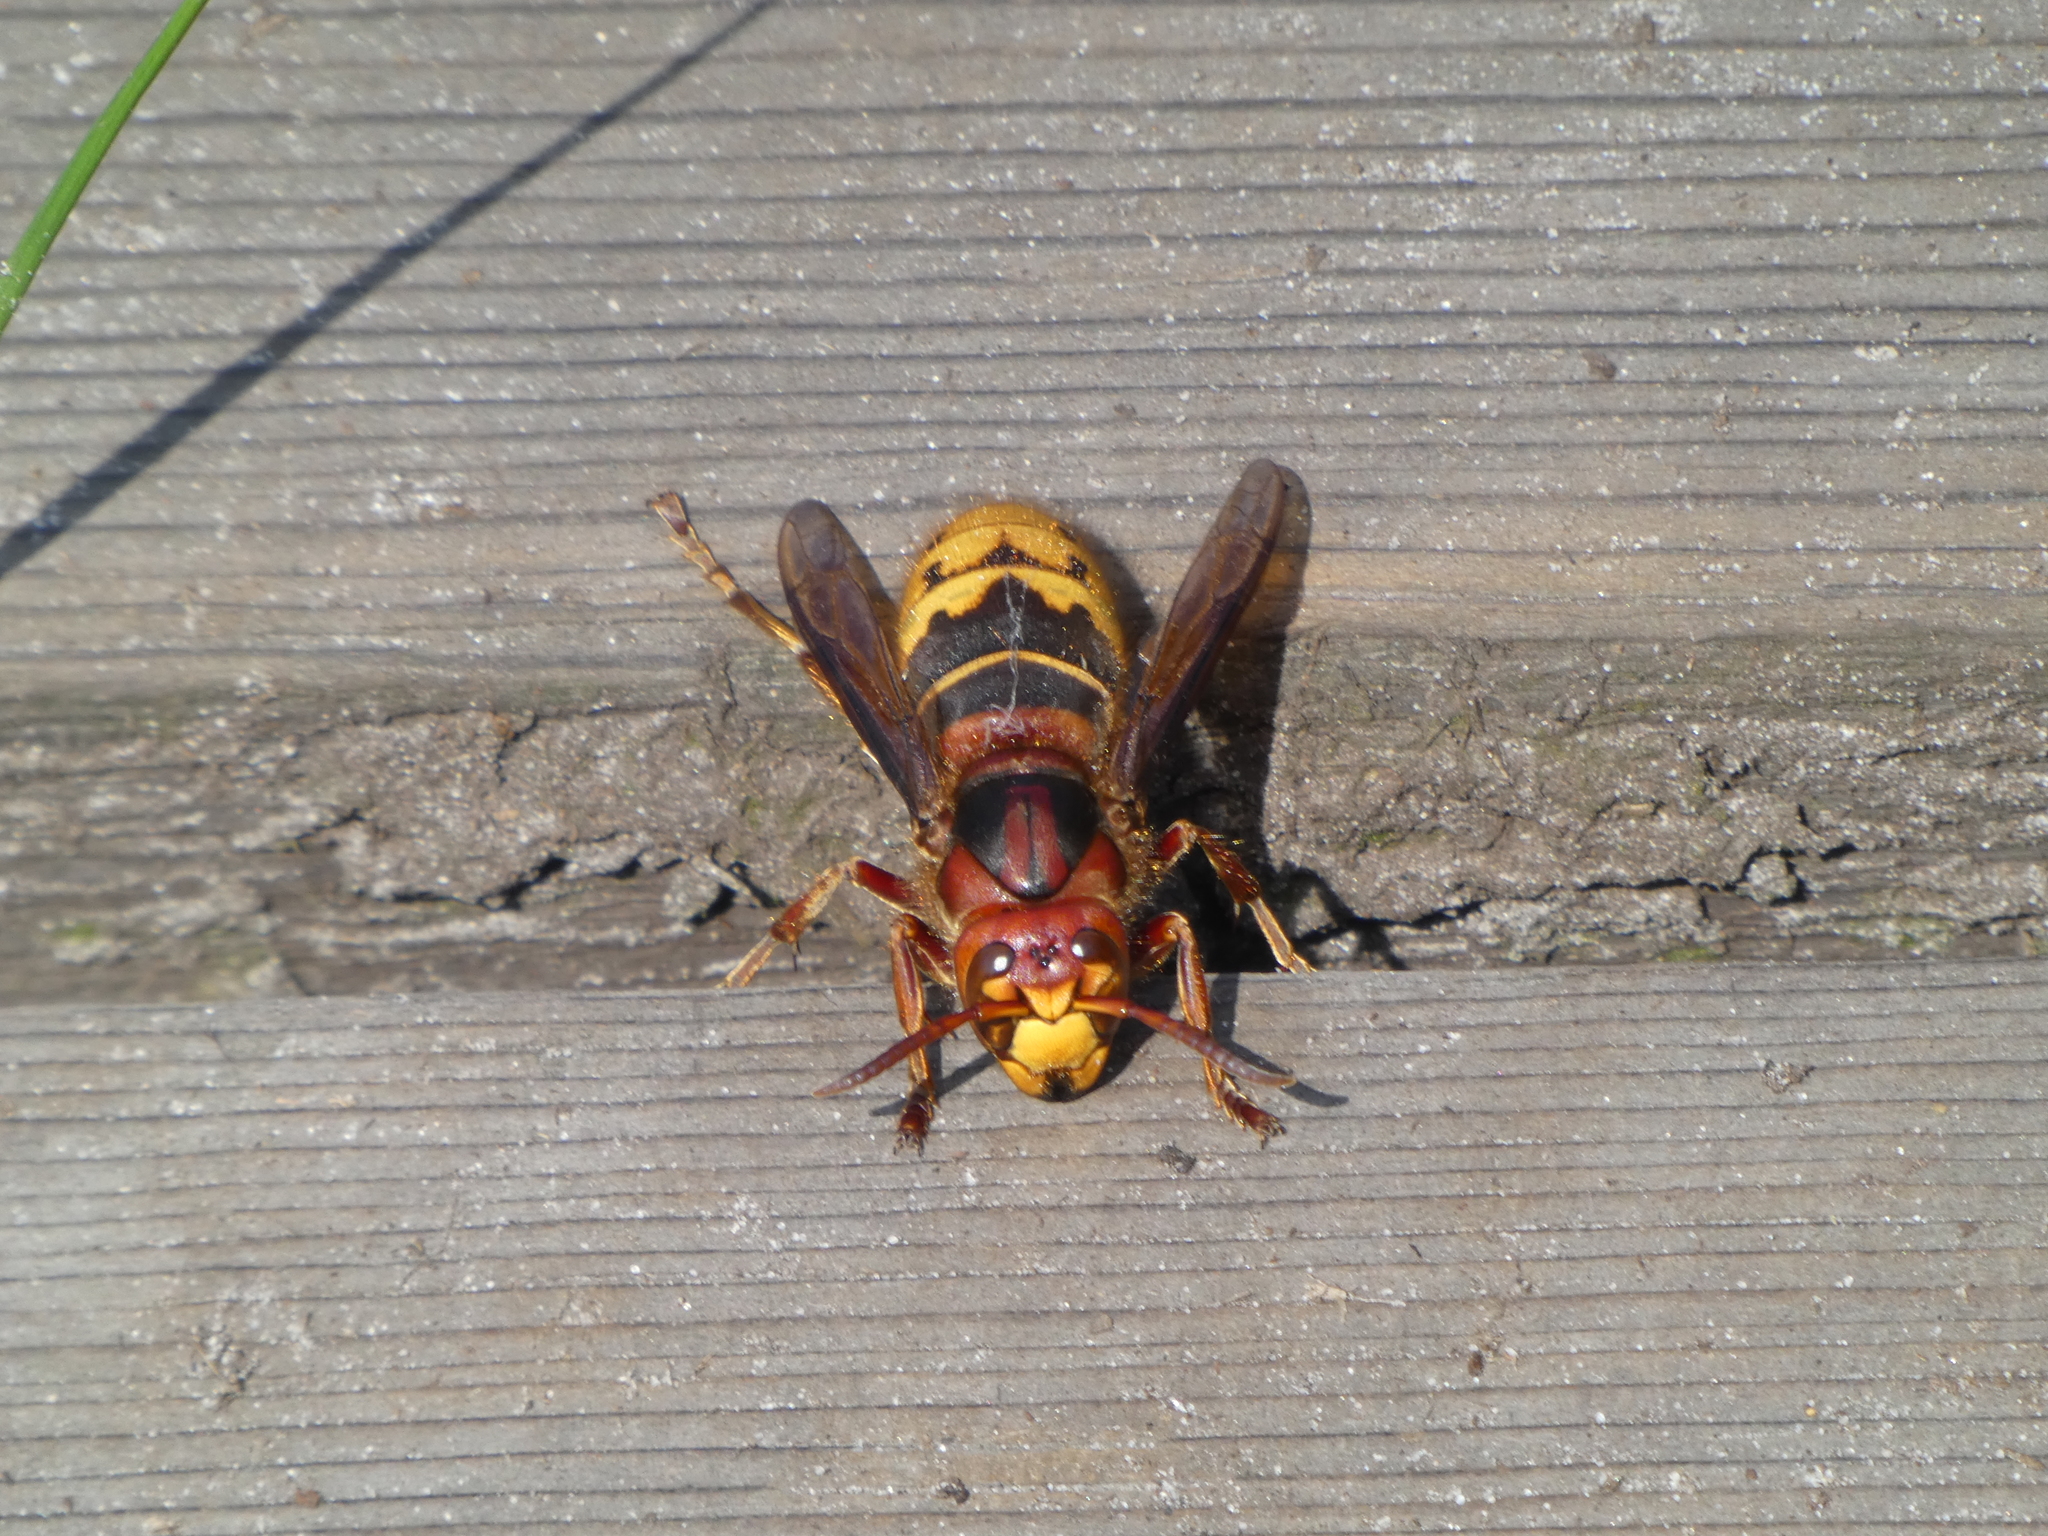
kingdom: Animalia
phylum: Arthropoda
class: Insecta
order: Hymenoptera
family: Vespidae
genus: Vespa
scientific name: Vespa crabro
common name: Hornet
